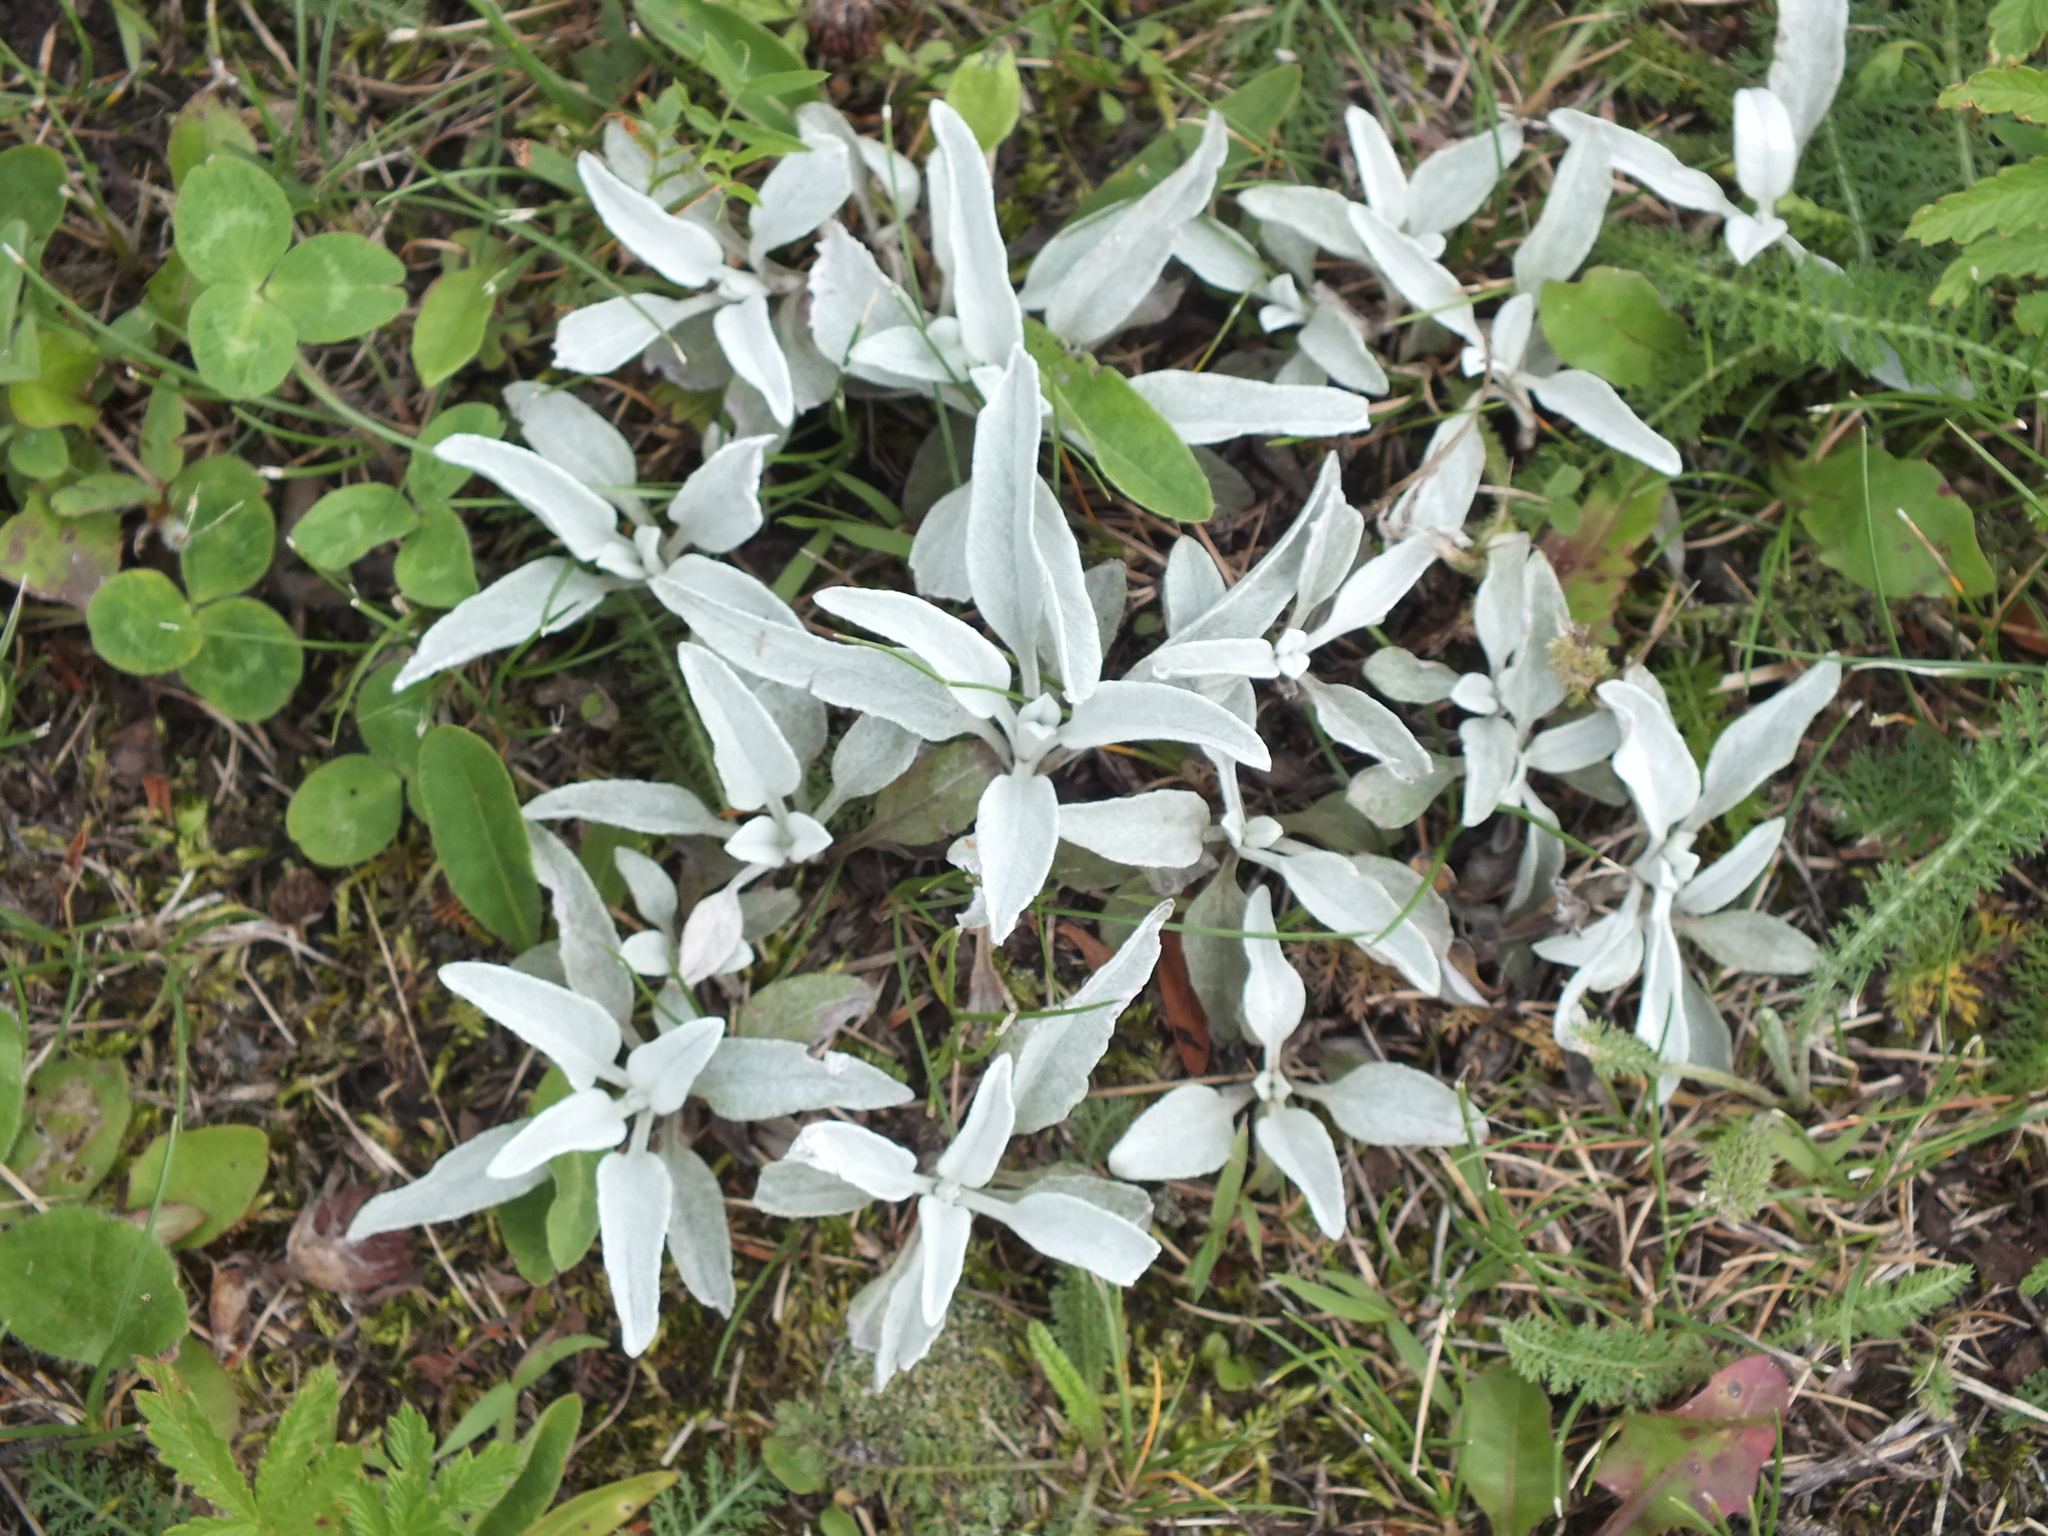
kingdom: Plantae
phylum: Tracheophyta
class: Magnoliopsida
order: Lamiales
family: Plantaginaceae
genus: Veronica
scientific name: Veronica incana
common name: Silver speedwell
